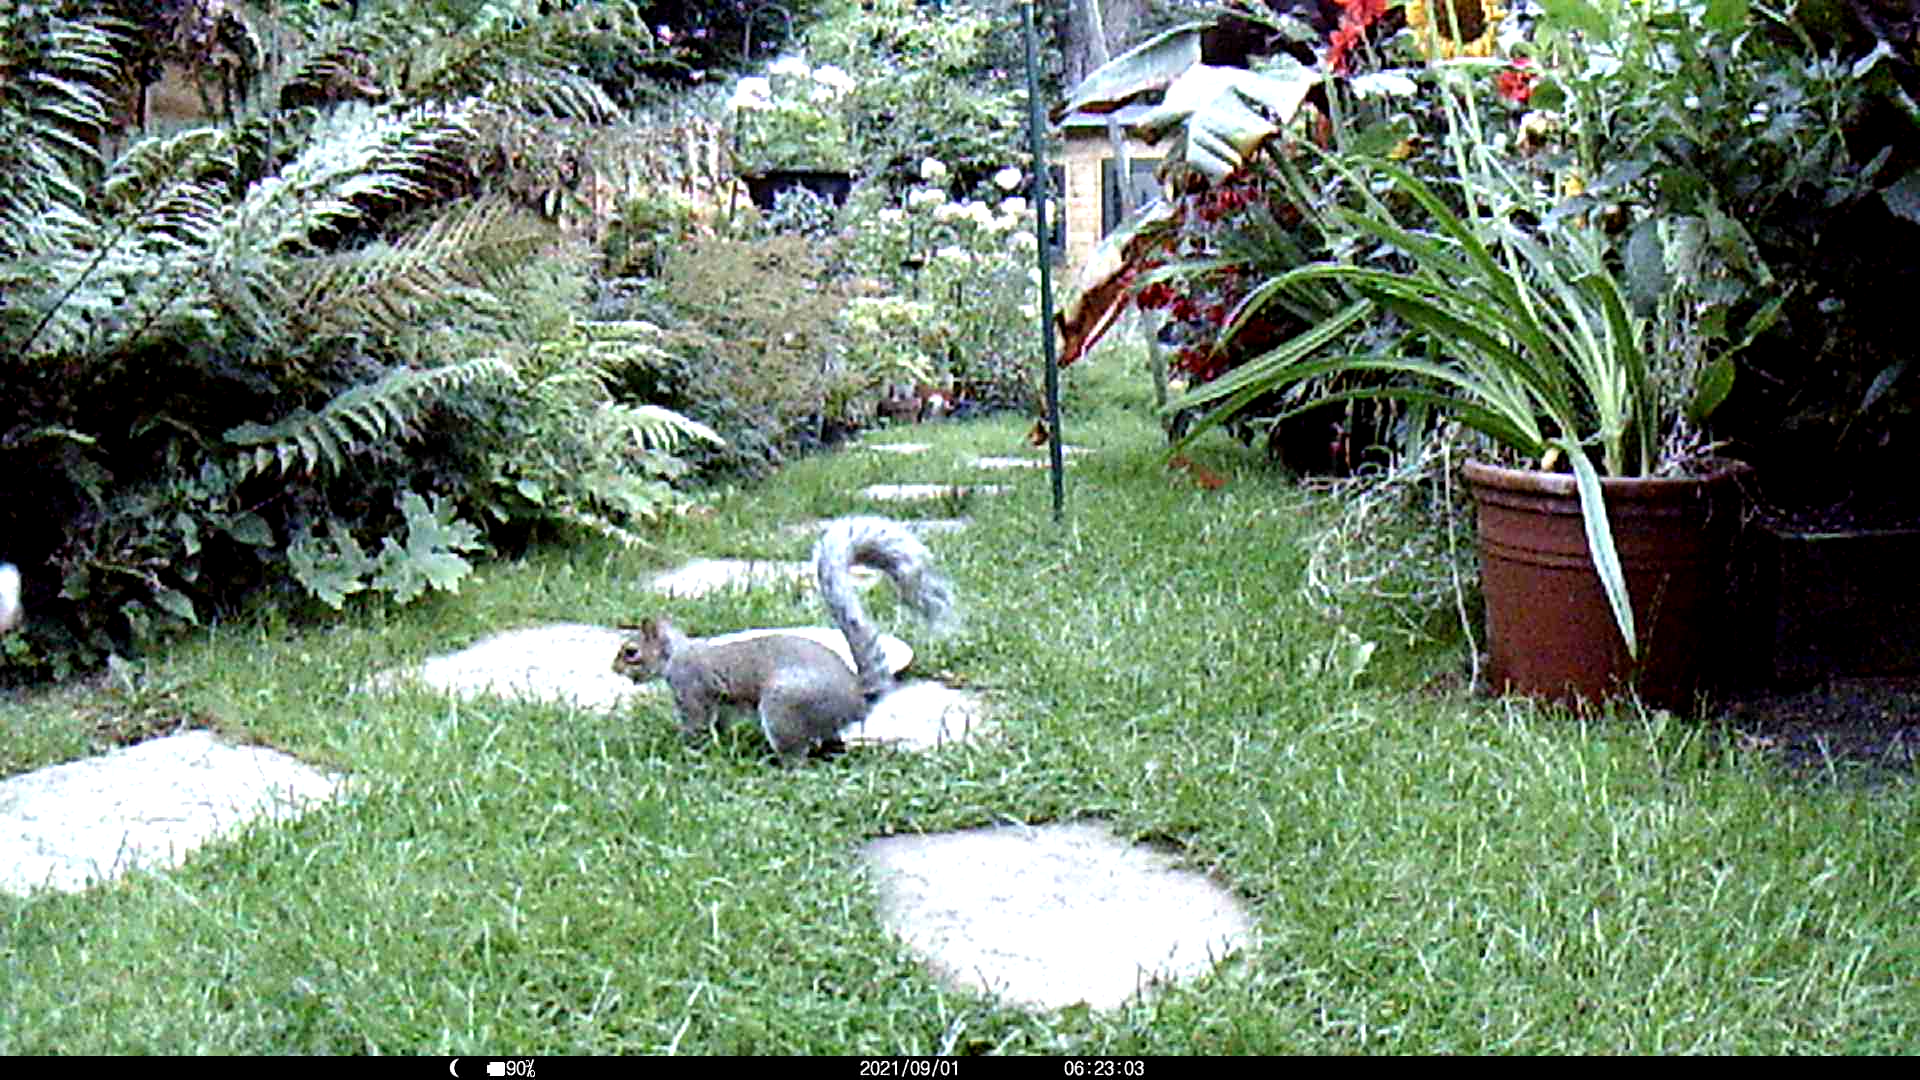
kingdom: Animalia
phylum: Chordata
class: Mammalia
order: Rodentia
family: Sciuridae
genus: Sciurus
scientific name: Sciurus carolinensis
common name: Eastern gray squirrel
